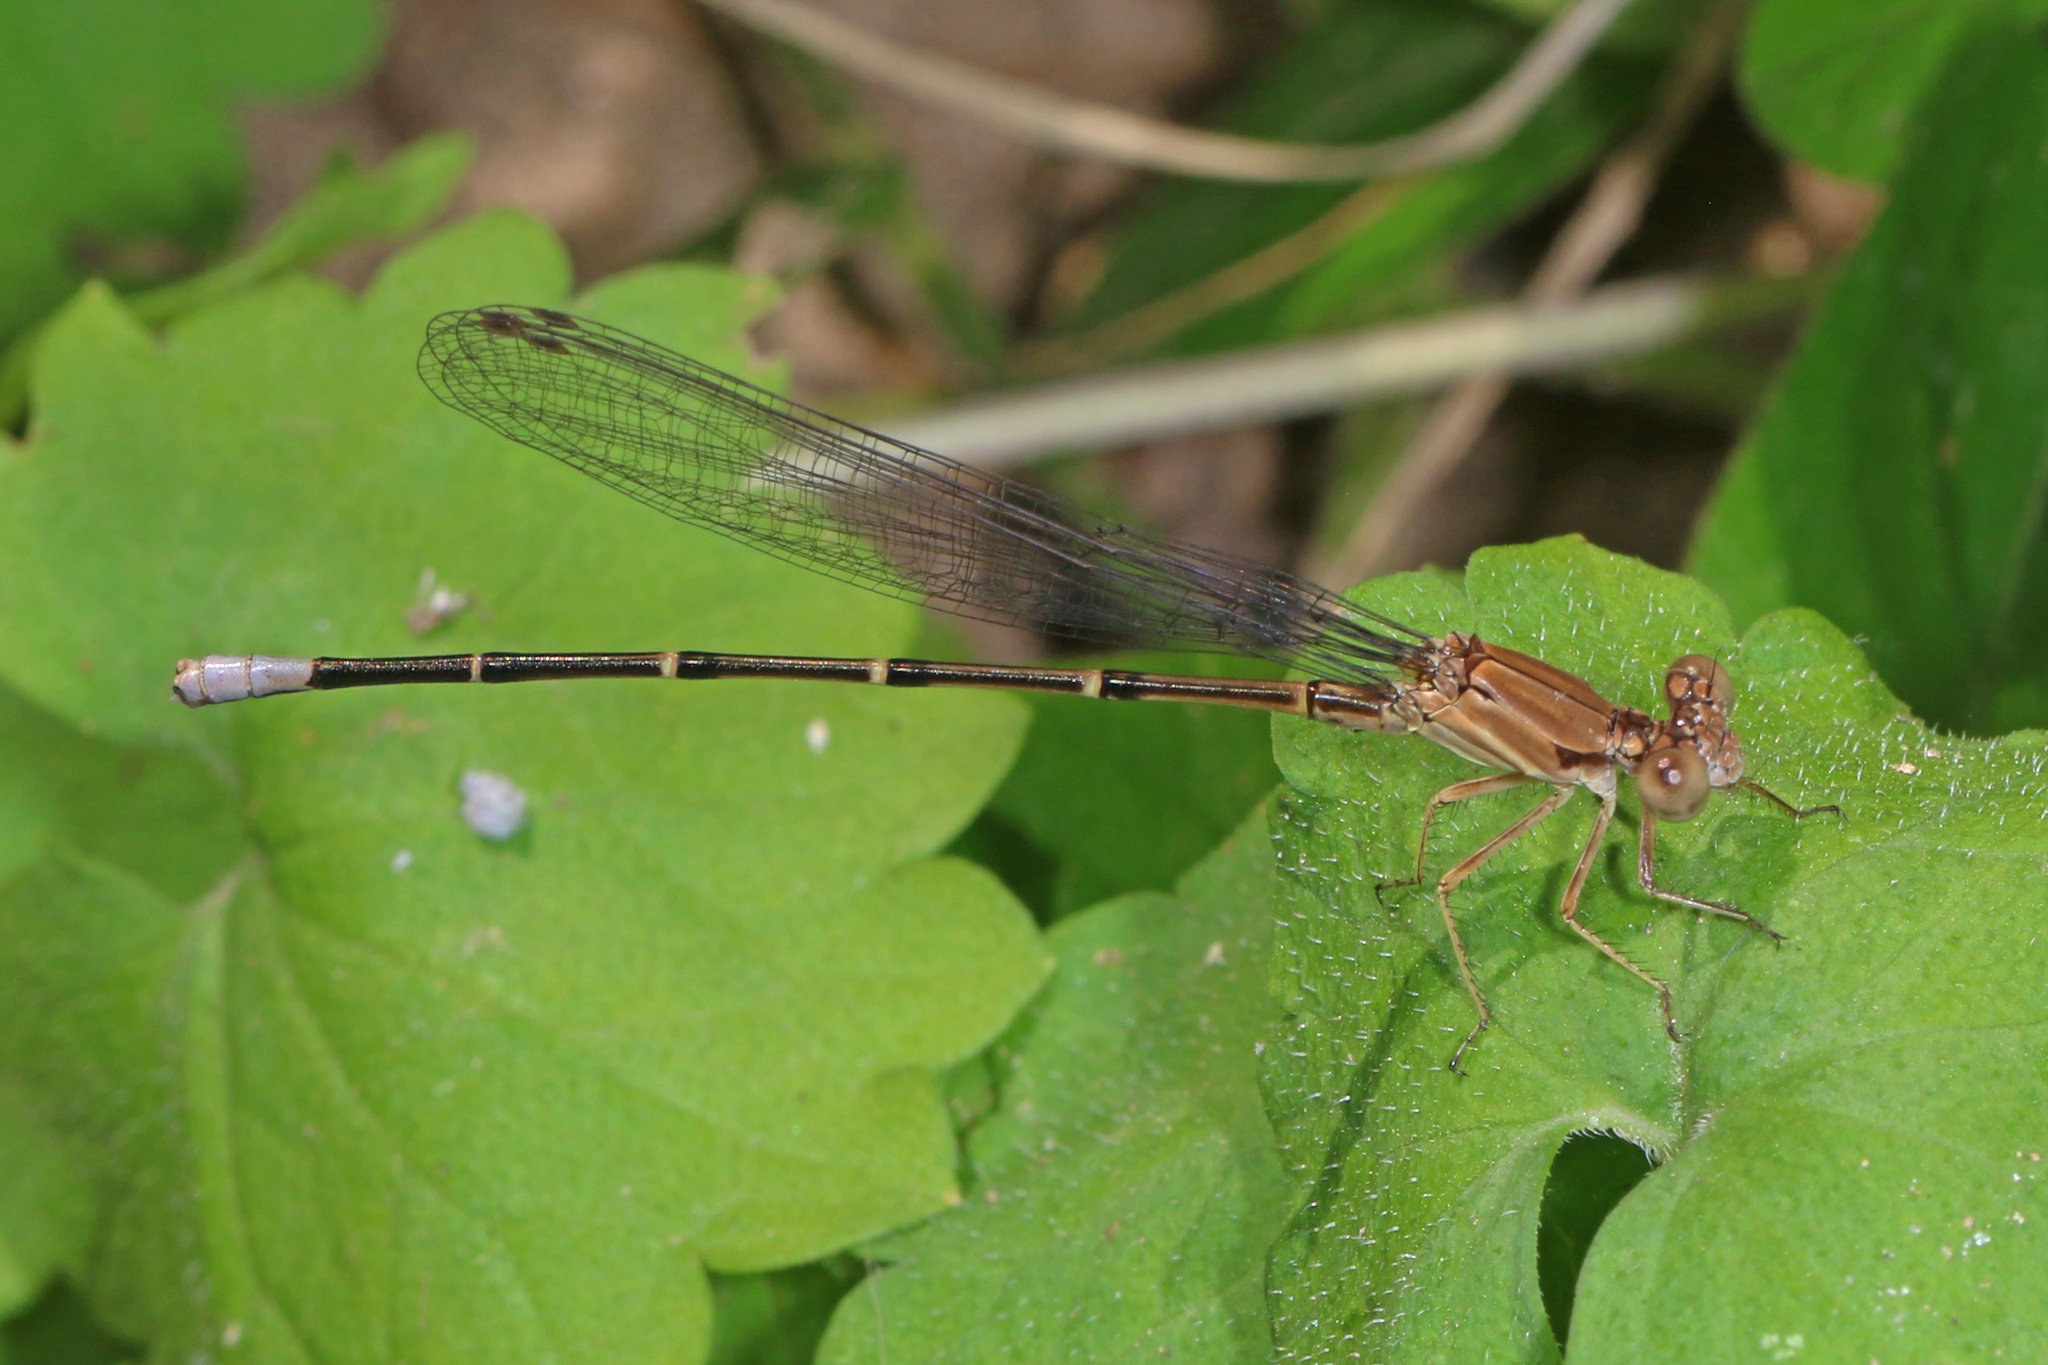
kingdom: Animalia
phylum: Arthropoda
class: Insecta
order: Odonata
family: Coenagrionidae
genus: Argia
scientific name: Argia apicalis
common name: Blue-fronted dancer
